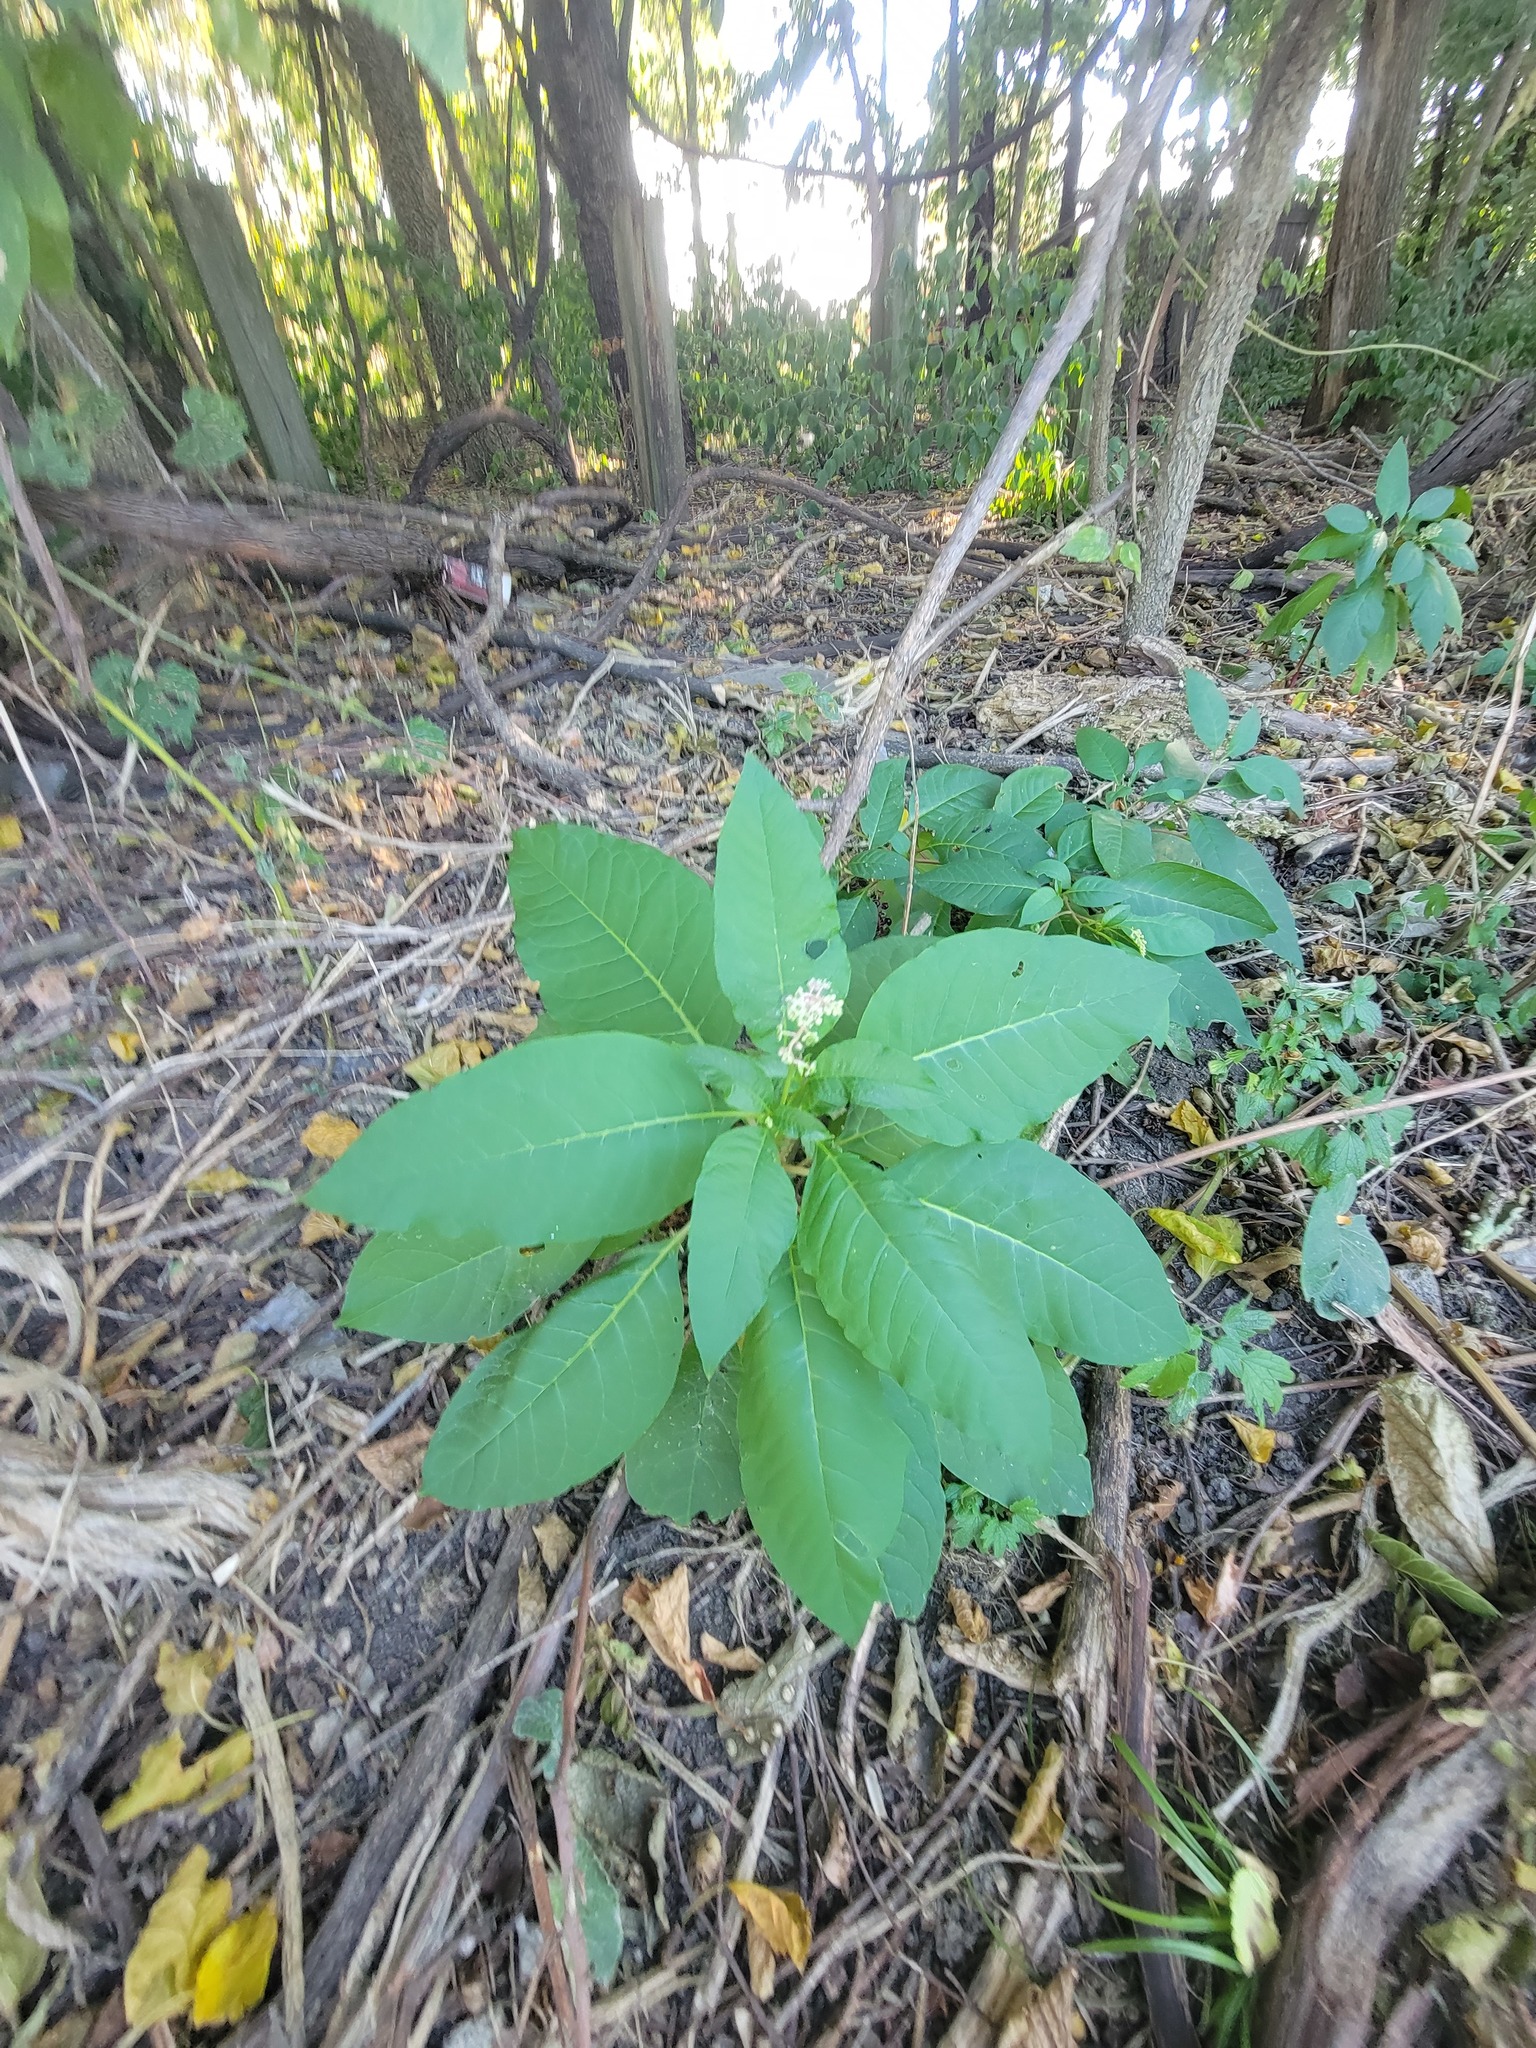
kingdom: Plantae
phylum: Tracheophyta
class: Magnoliopsida
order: Caryophyllales
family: Phytolaccaceae
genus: Phytolacca
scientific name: Phytolacca americana
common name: American pokeweed
